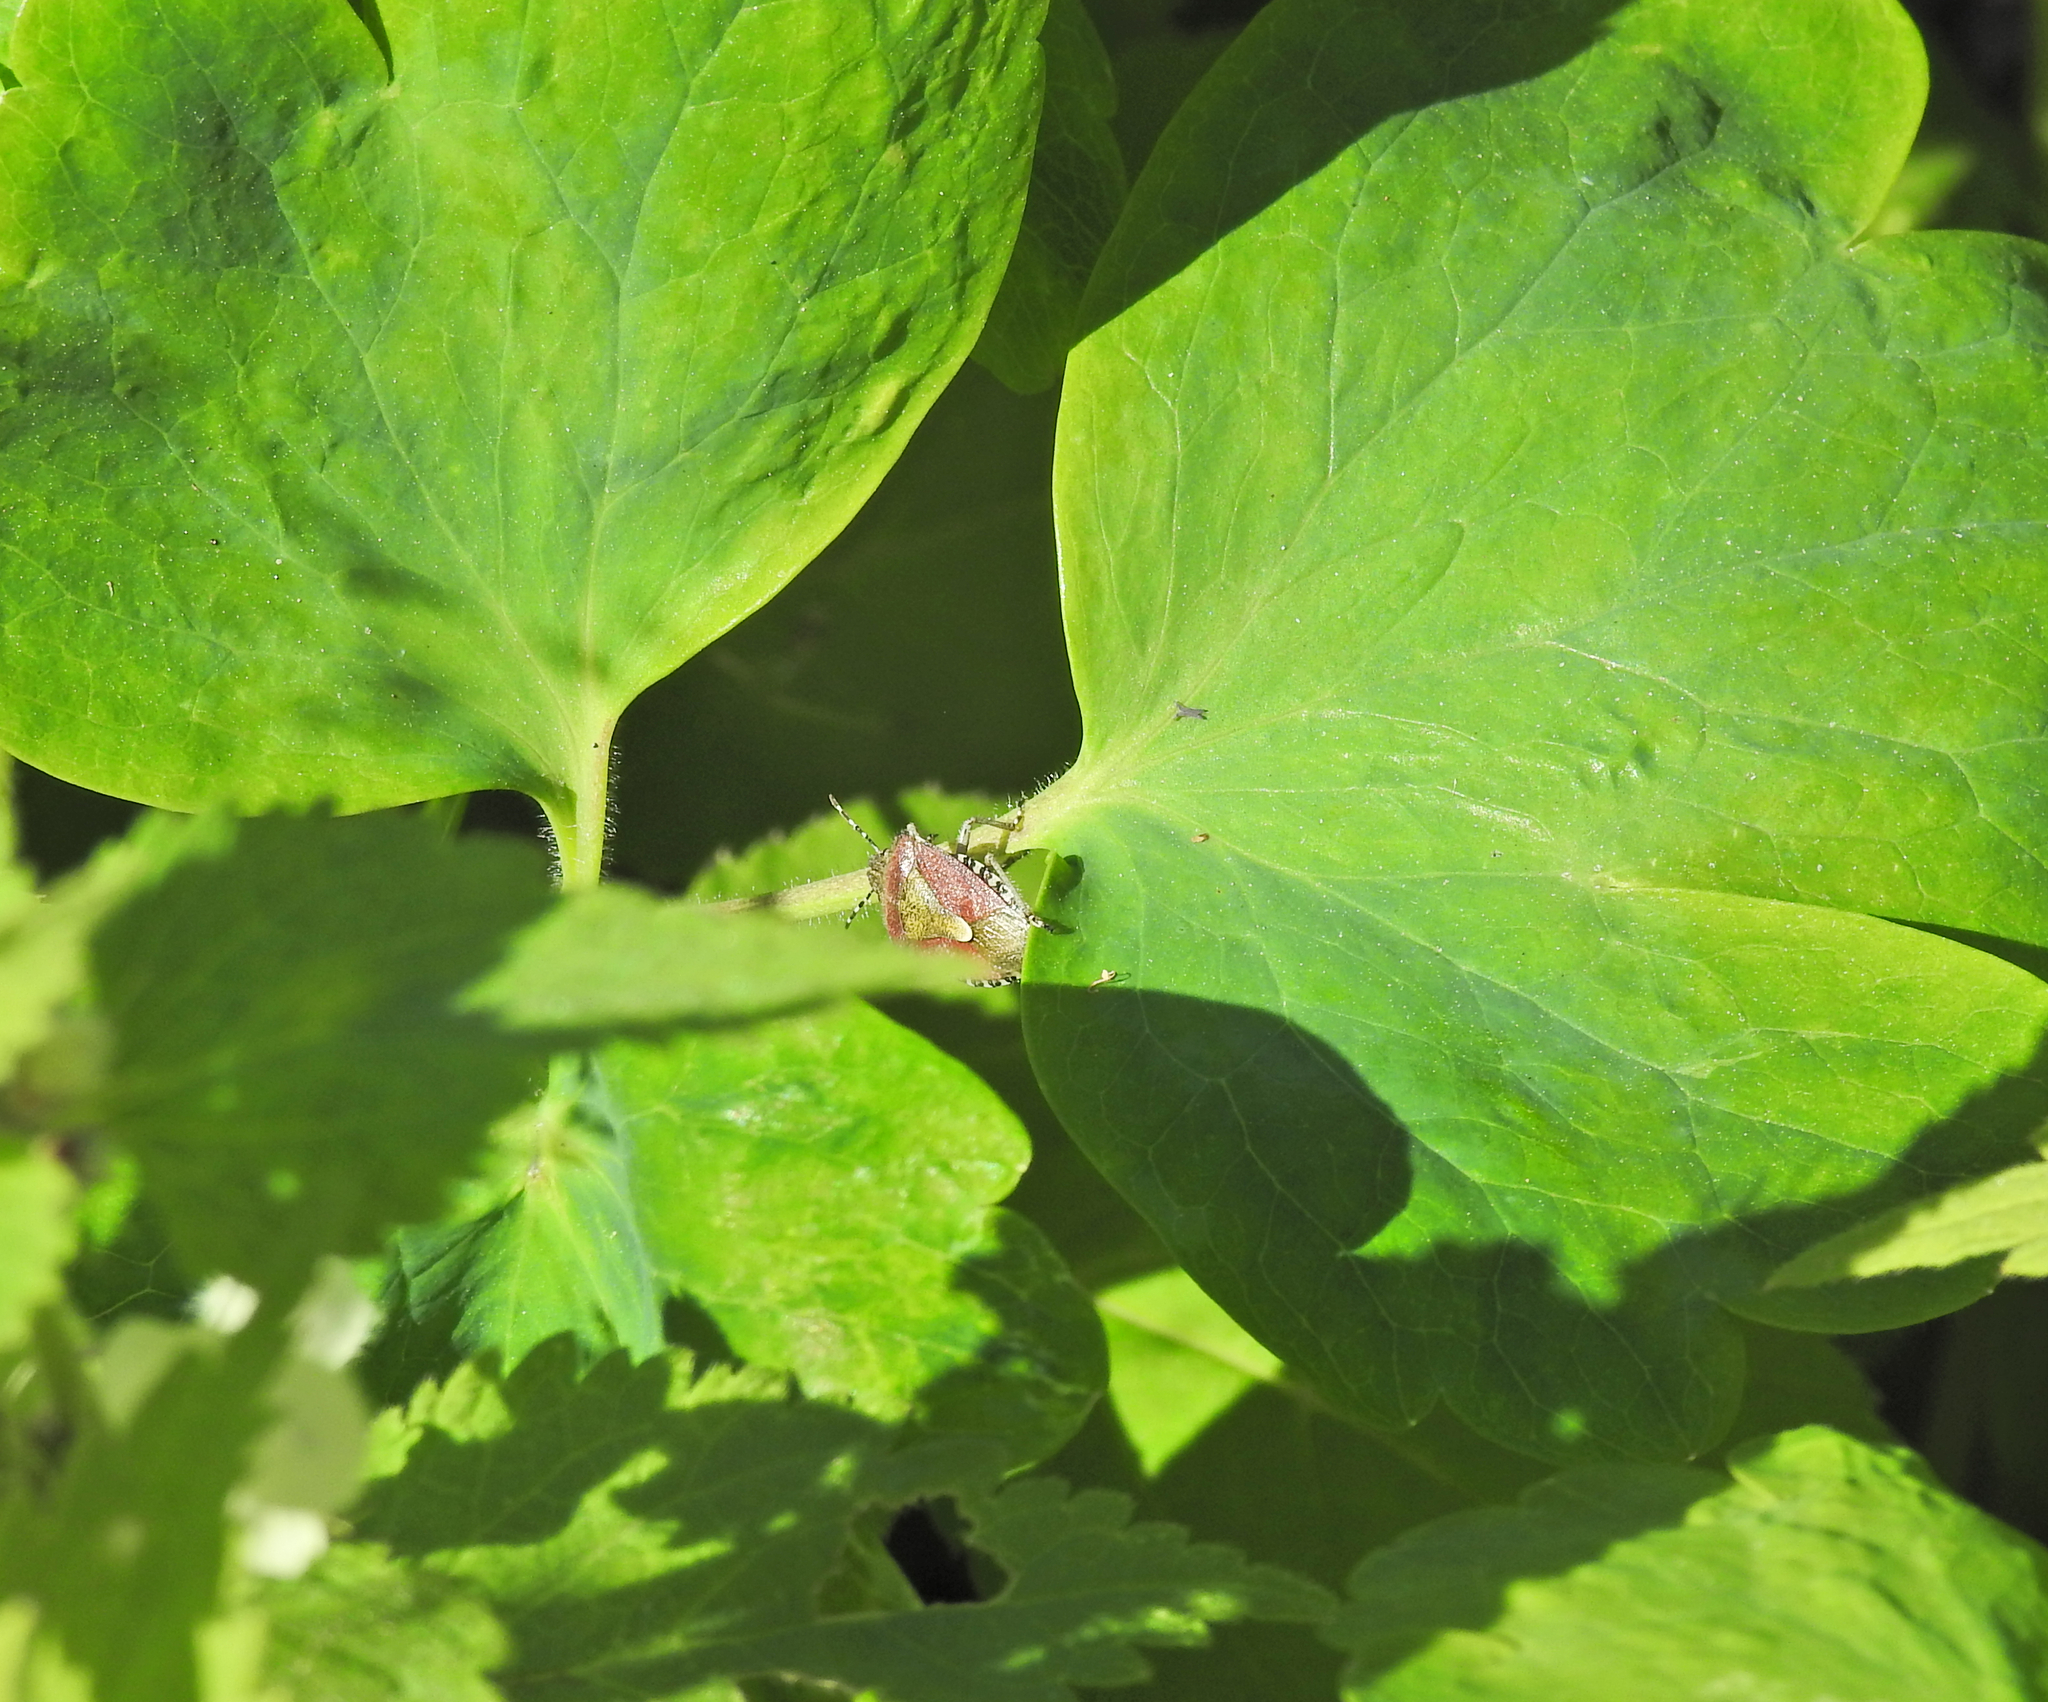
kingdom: Animalia
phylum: Arthropoda
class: Insecta
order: Hemiptera
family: Pentatomidae
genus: Dolycoris
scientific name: Dolycoris baccarum
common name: Sloe bug
